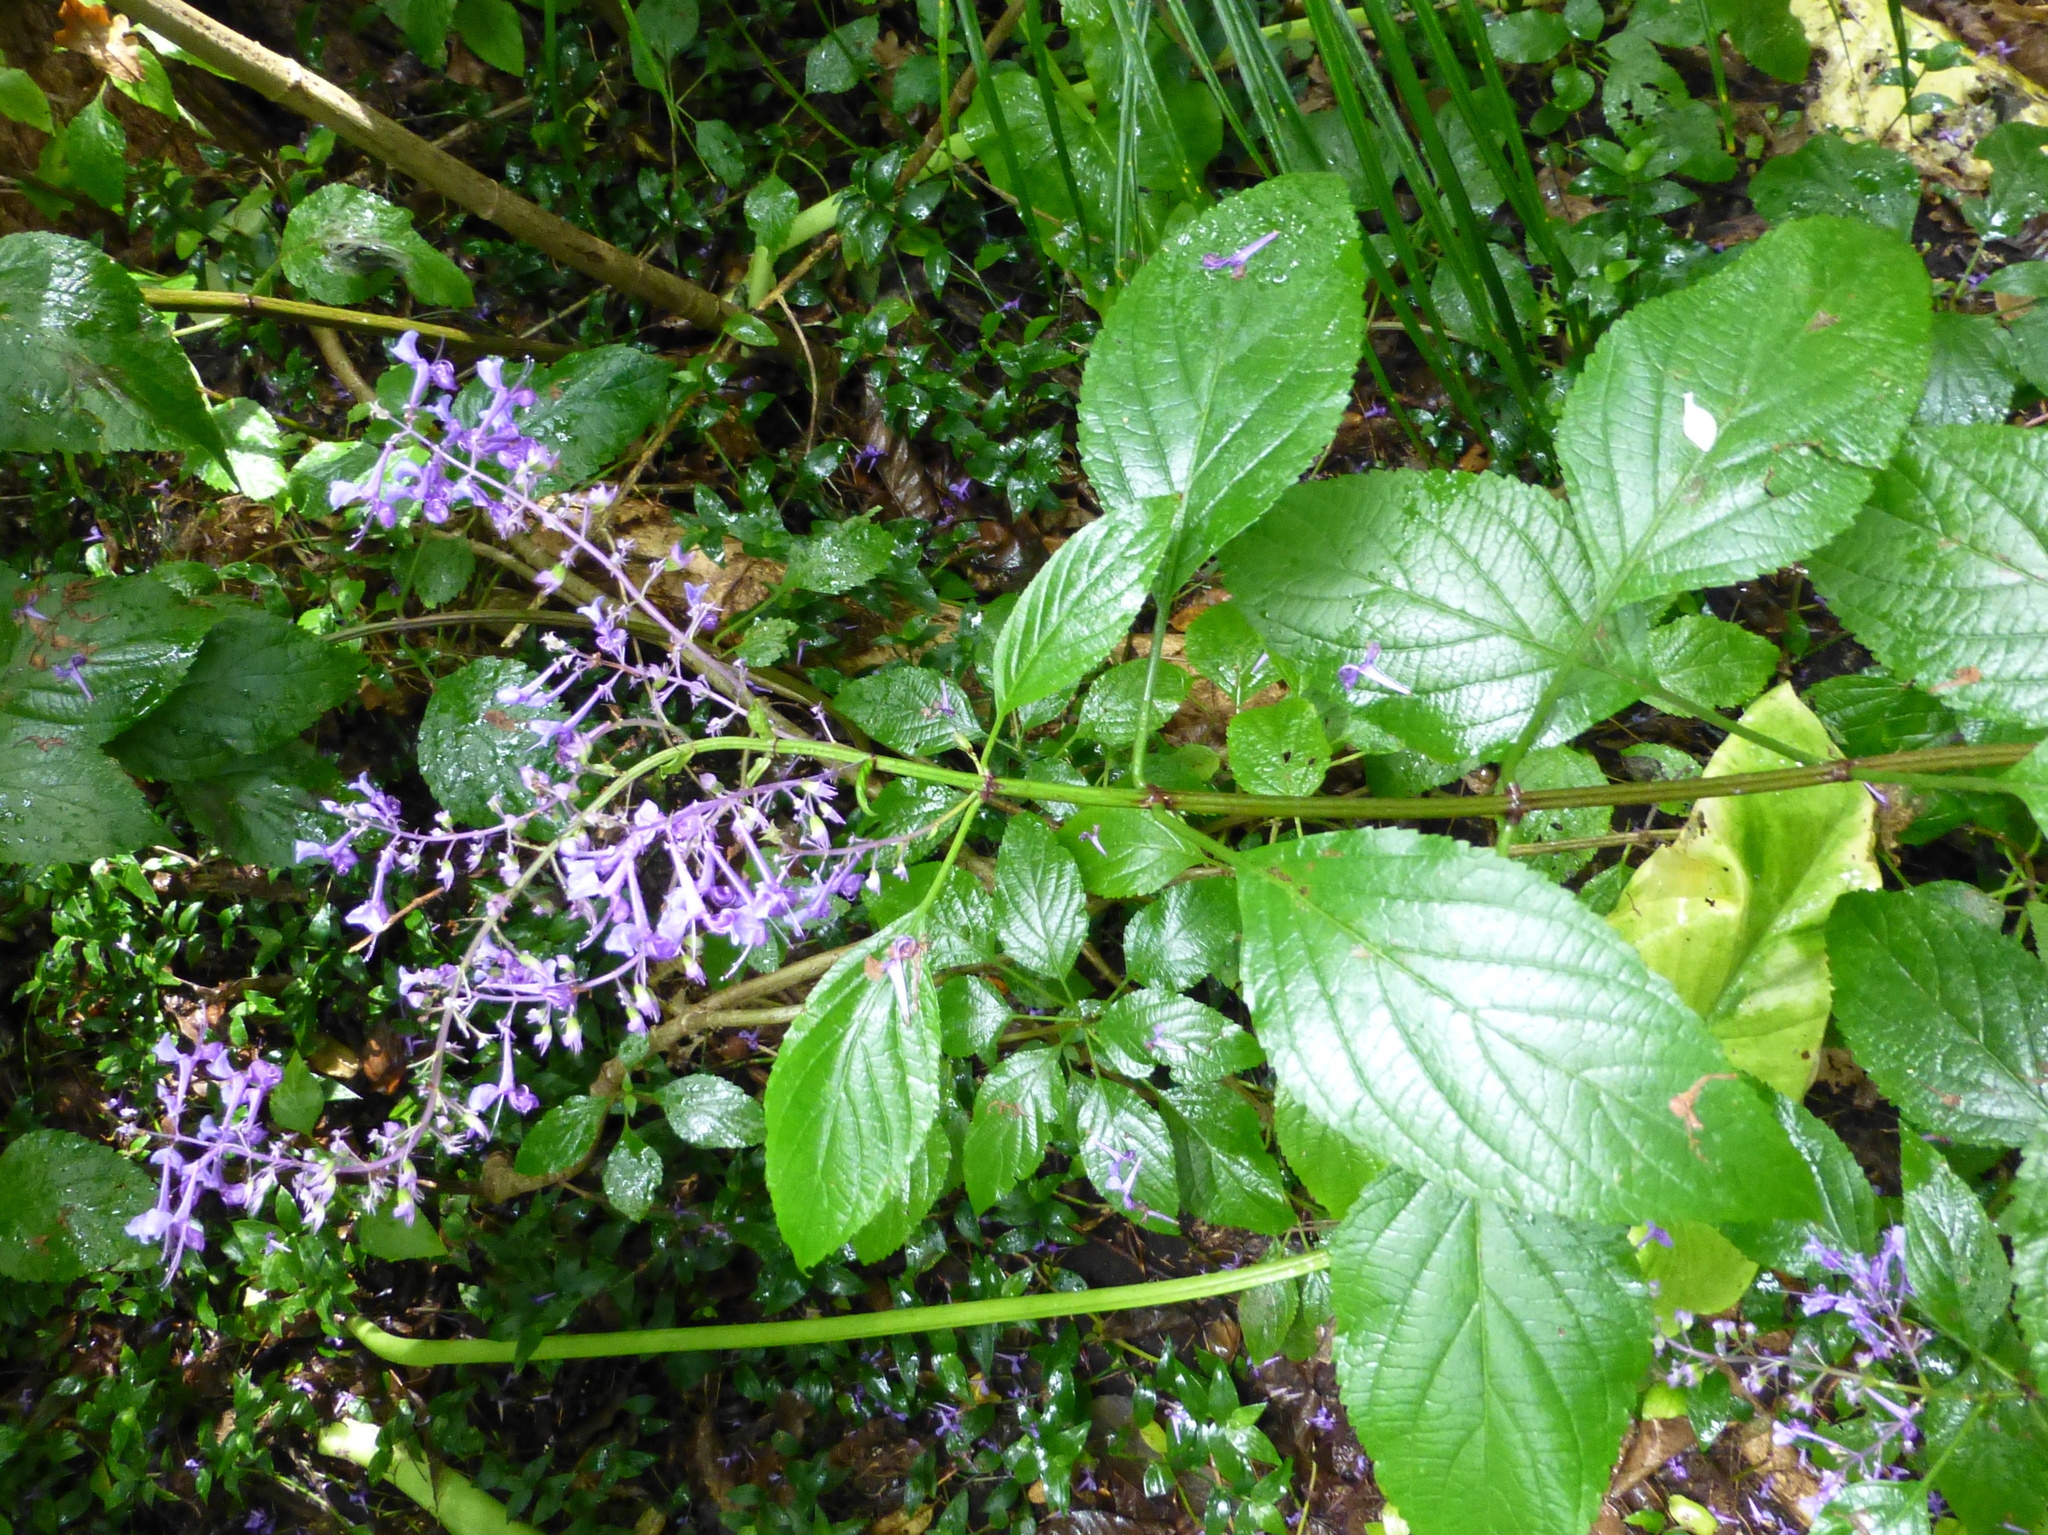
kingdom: Plantae
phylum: Tracheophyta
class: Magnoliopsida
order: Lamiales
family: Lamiaceae
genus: Plectranthus
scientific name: Plectranthus ecklonii
